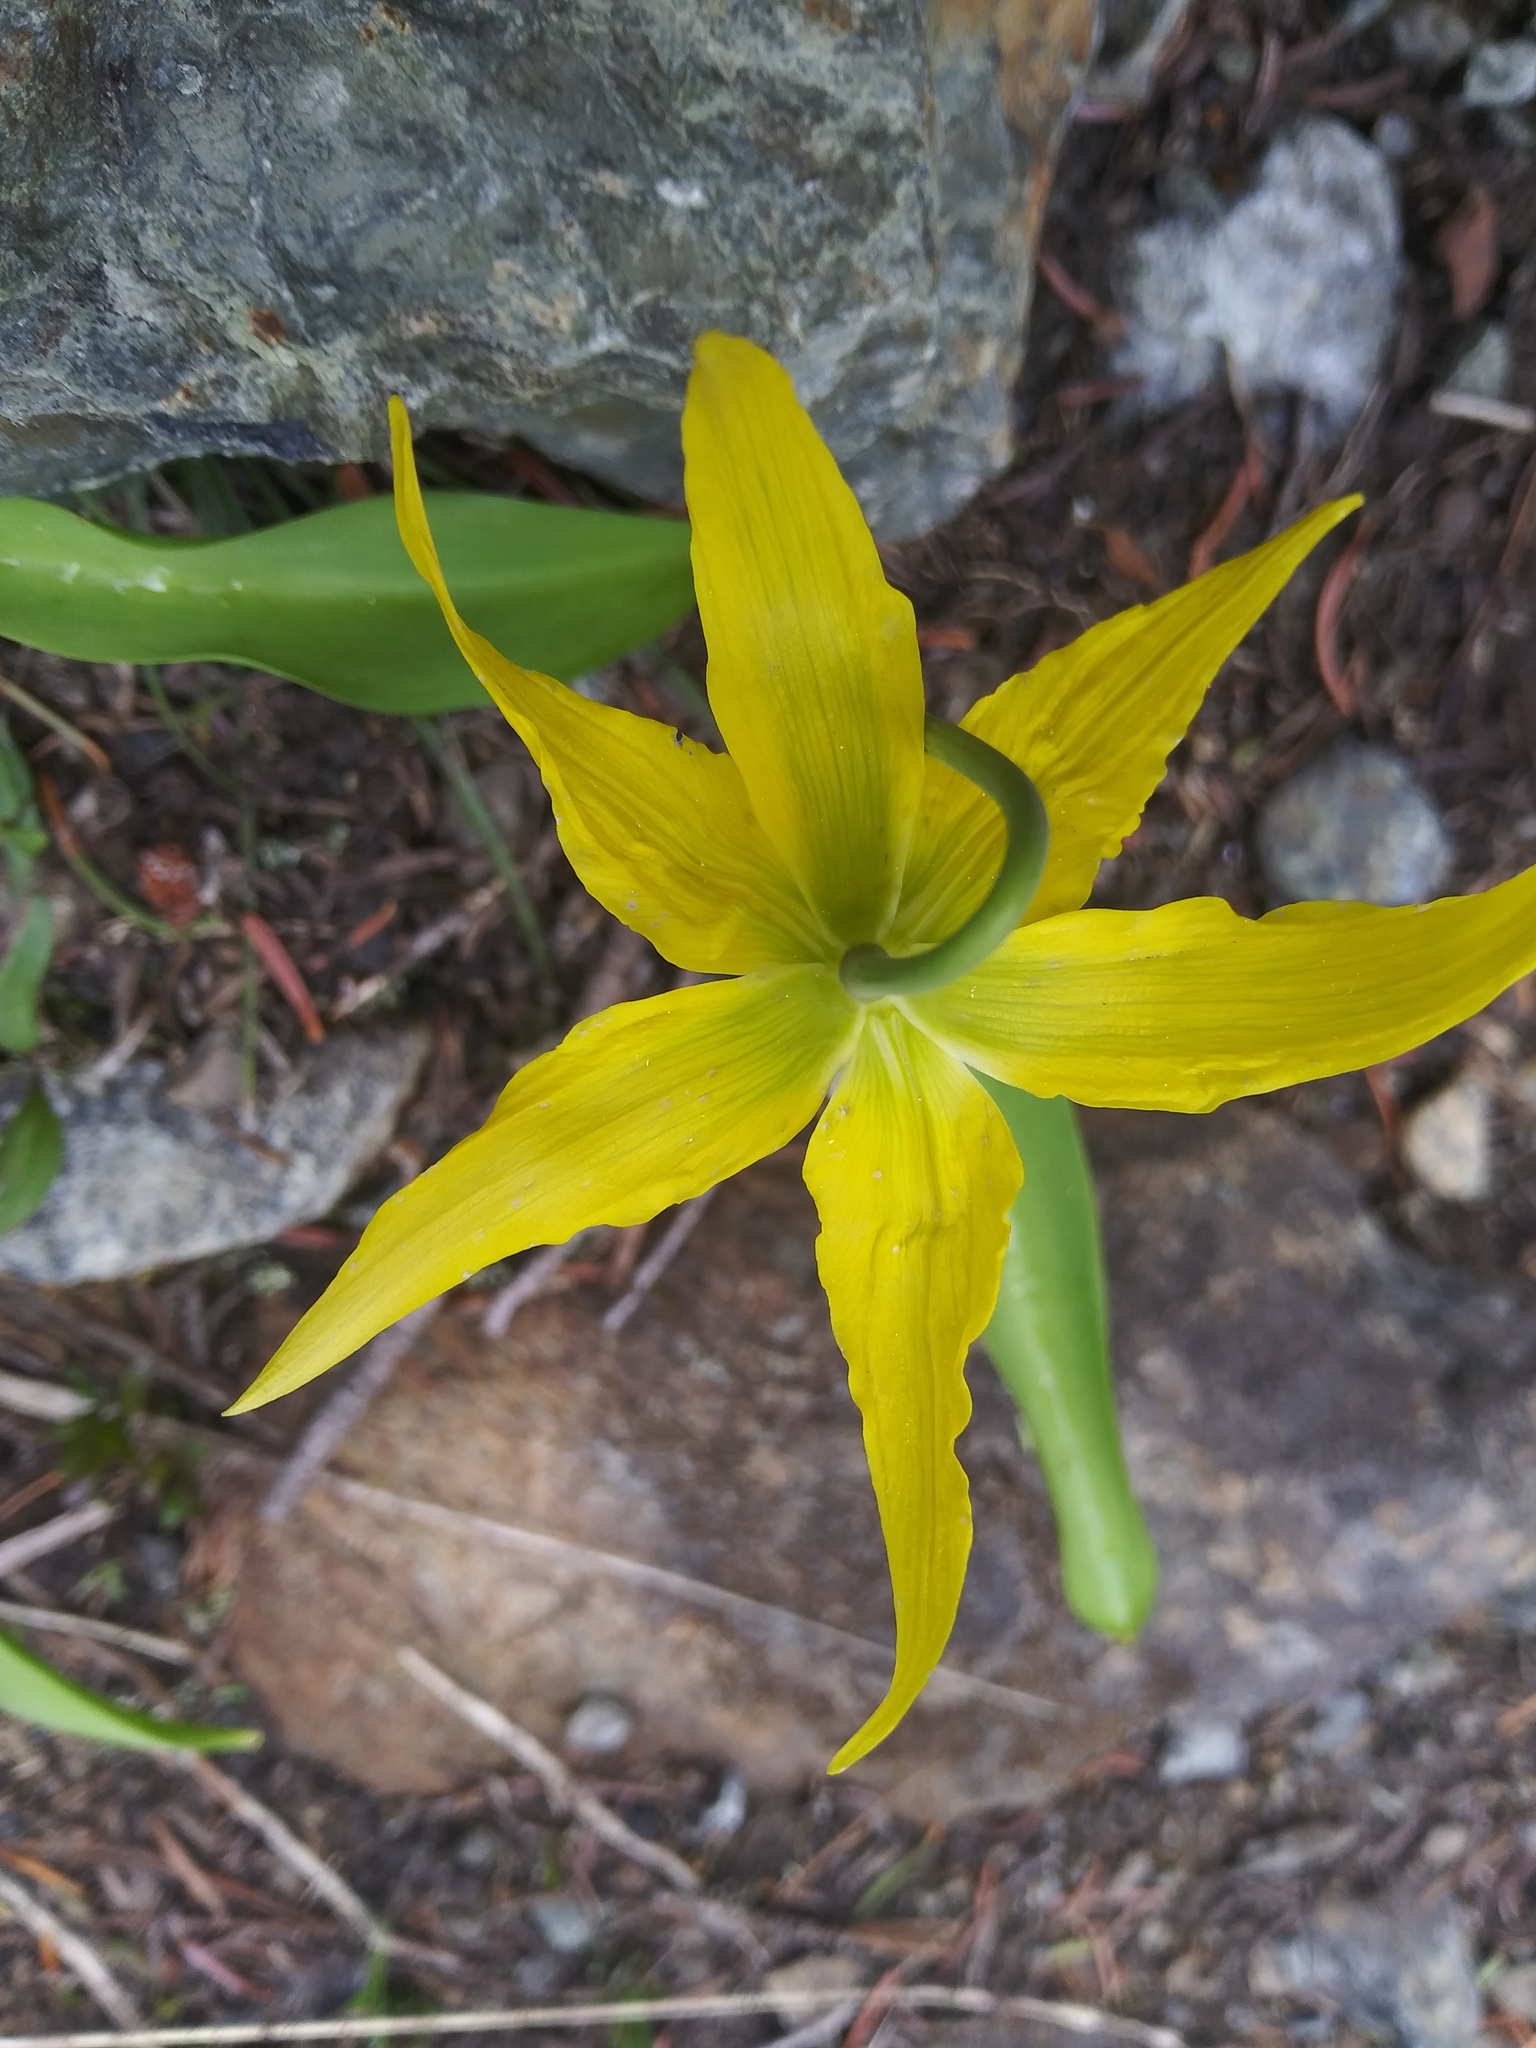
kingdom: Plantae
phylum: Tracheophyta
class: Liliopsida
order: Liliales
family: Liliaceae
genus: Erythronium
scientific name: Erythronium grandiflorum
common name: Avalanche-lily
